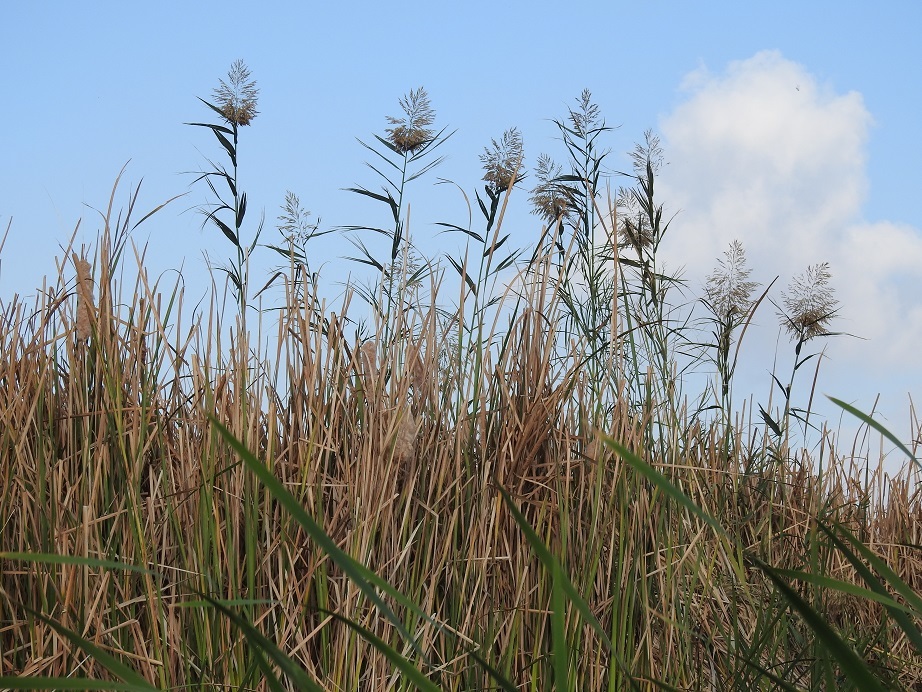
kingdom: Plantae
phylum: Tracheophyta
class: Liliopsida
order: Poales
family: Poaceae
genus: Phragmites
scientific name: Phragmites australis
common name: Common reed
